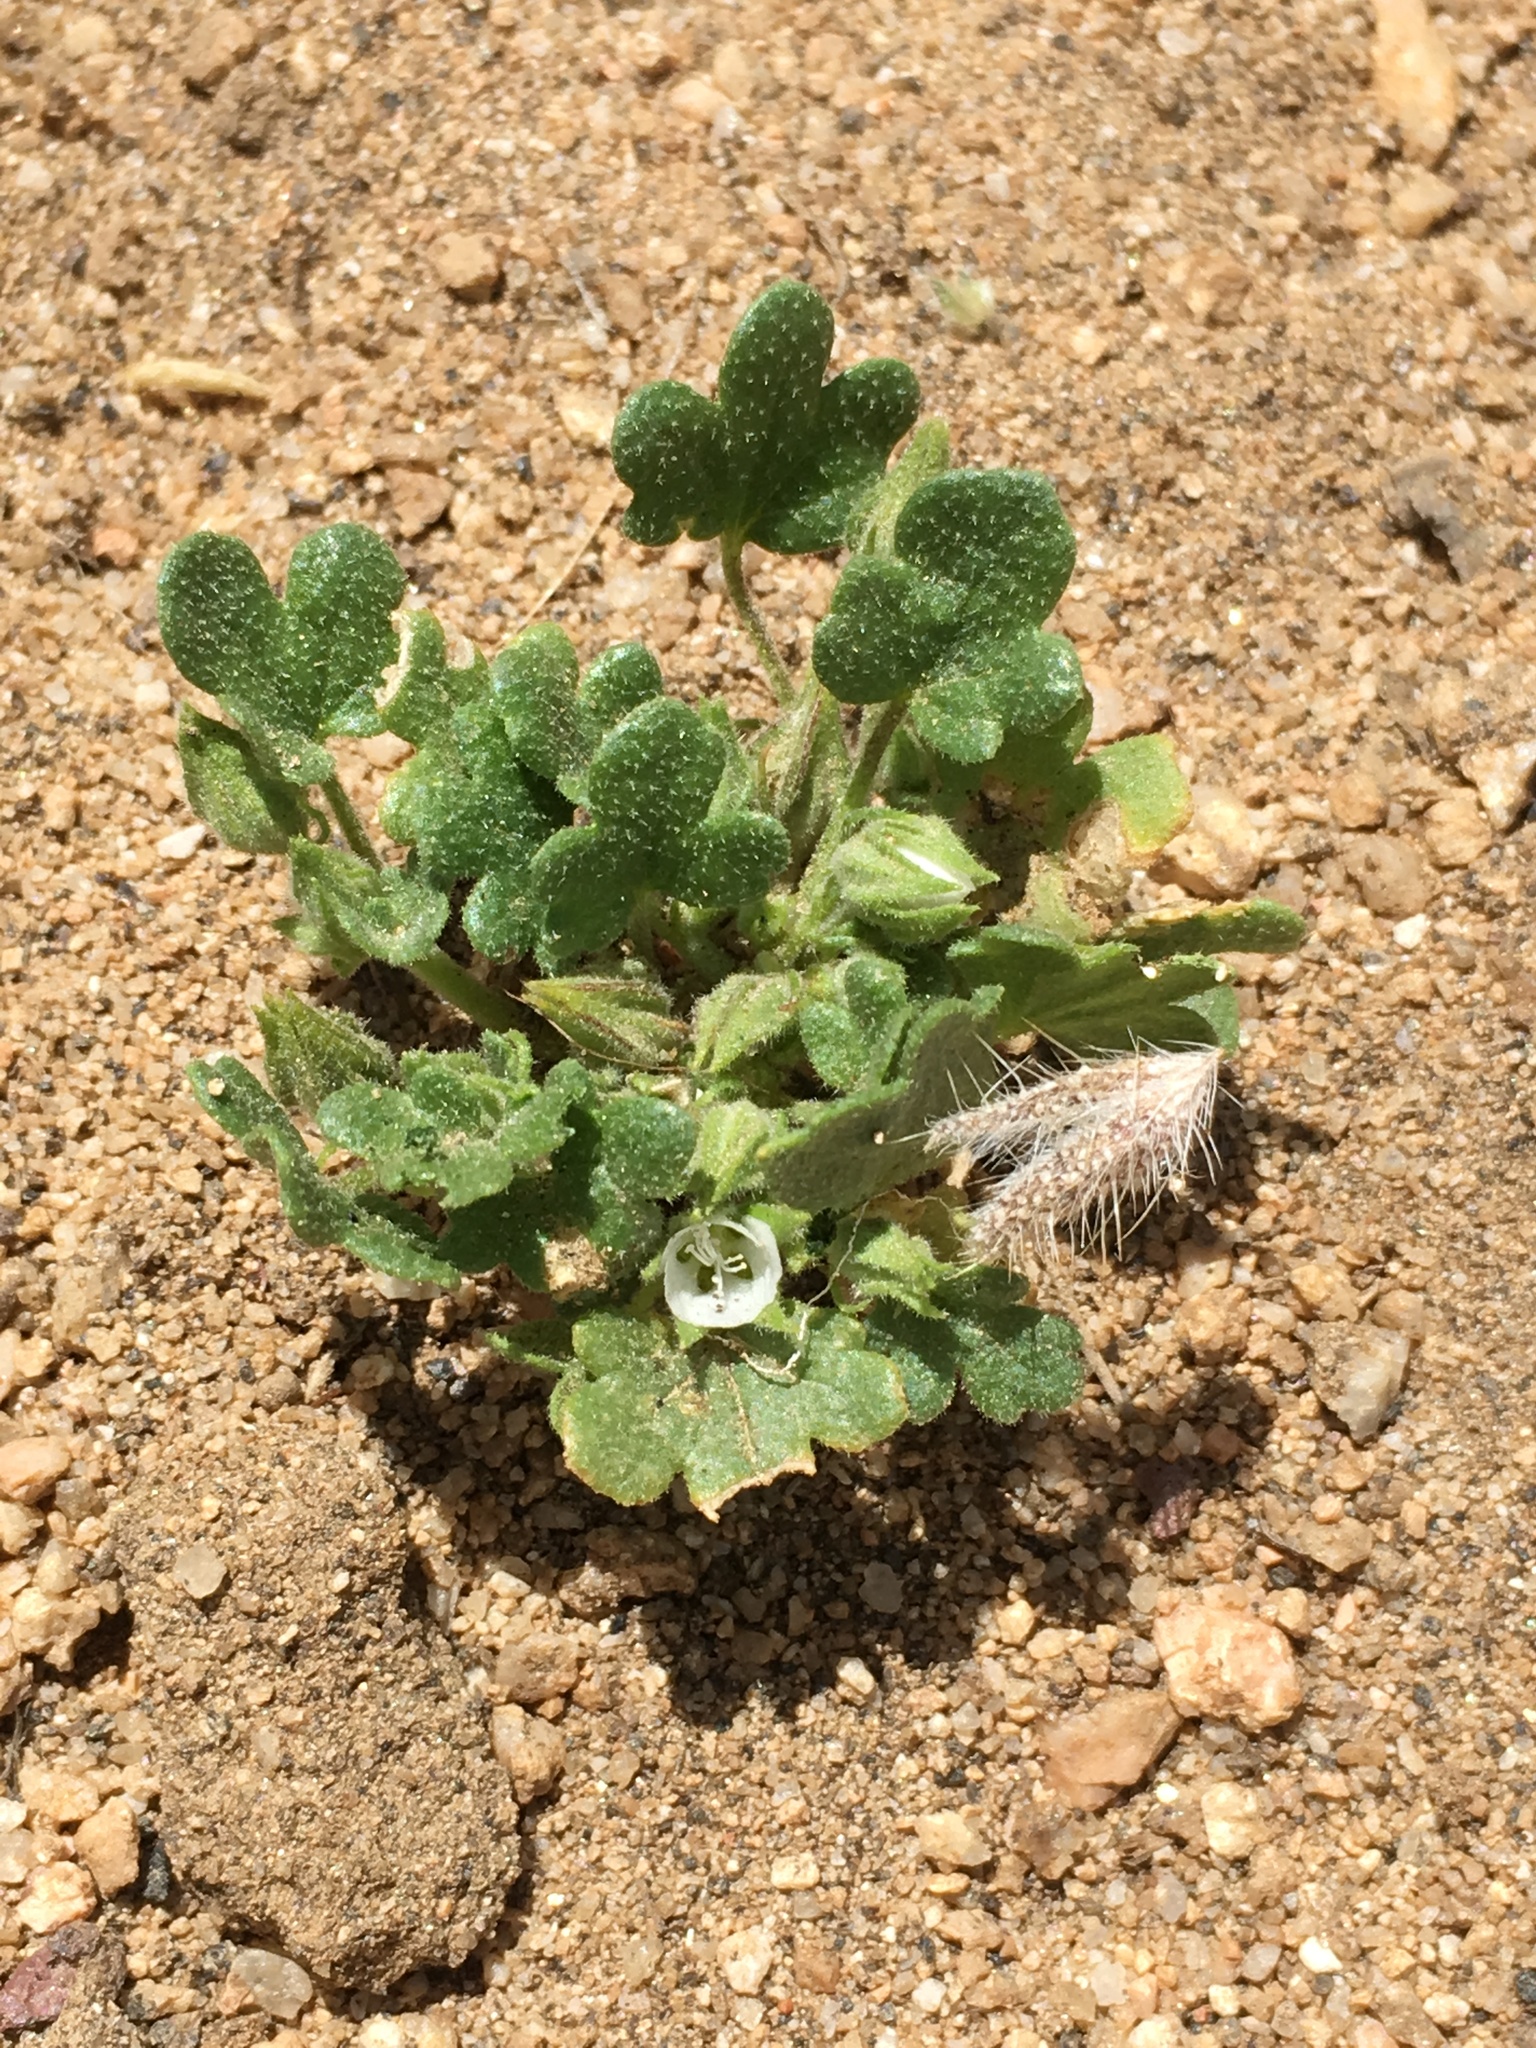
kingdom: Plantae
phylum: Tracheophyta
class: Magnoliopsida
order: Malvales
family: Malvaceae
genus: Eremalche
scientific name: Eremalche exilis
